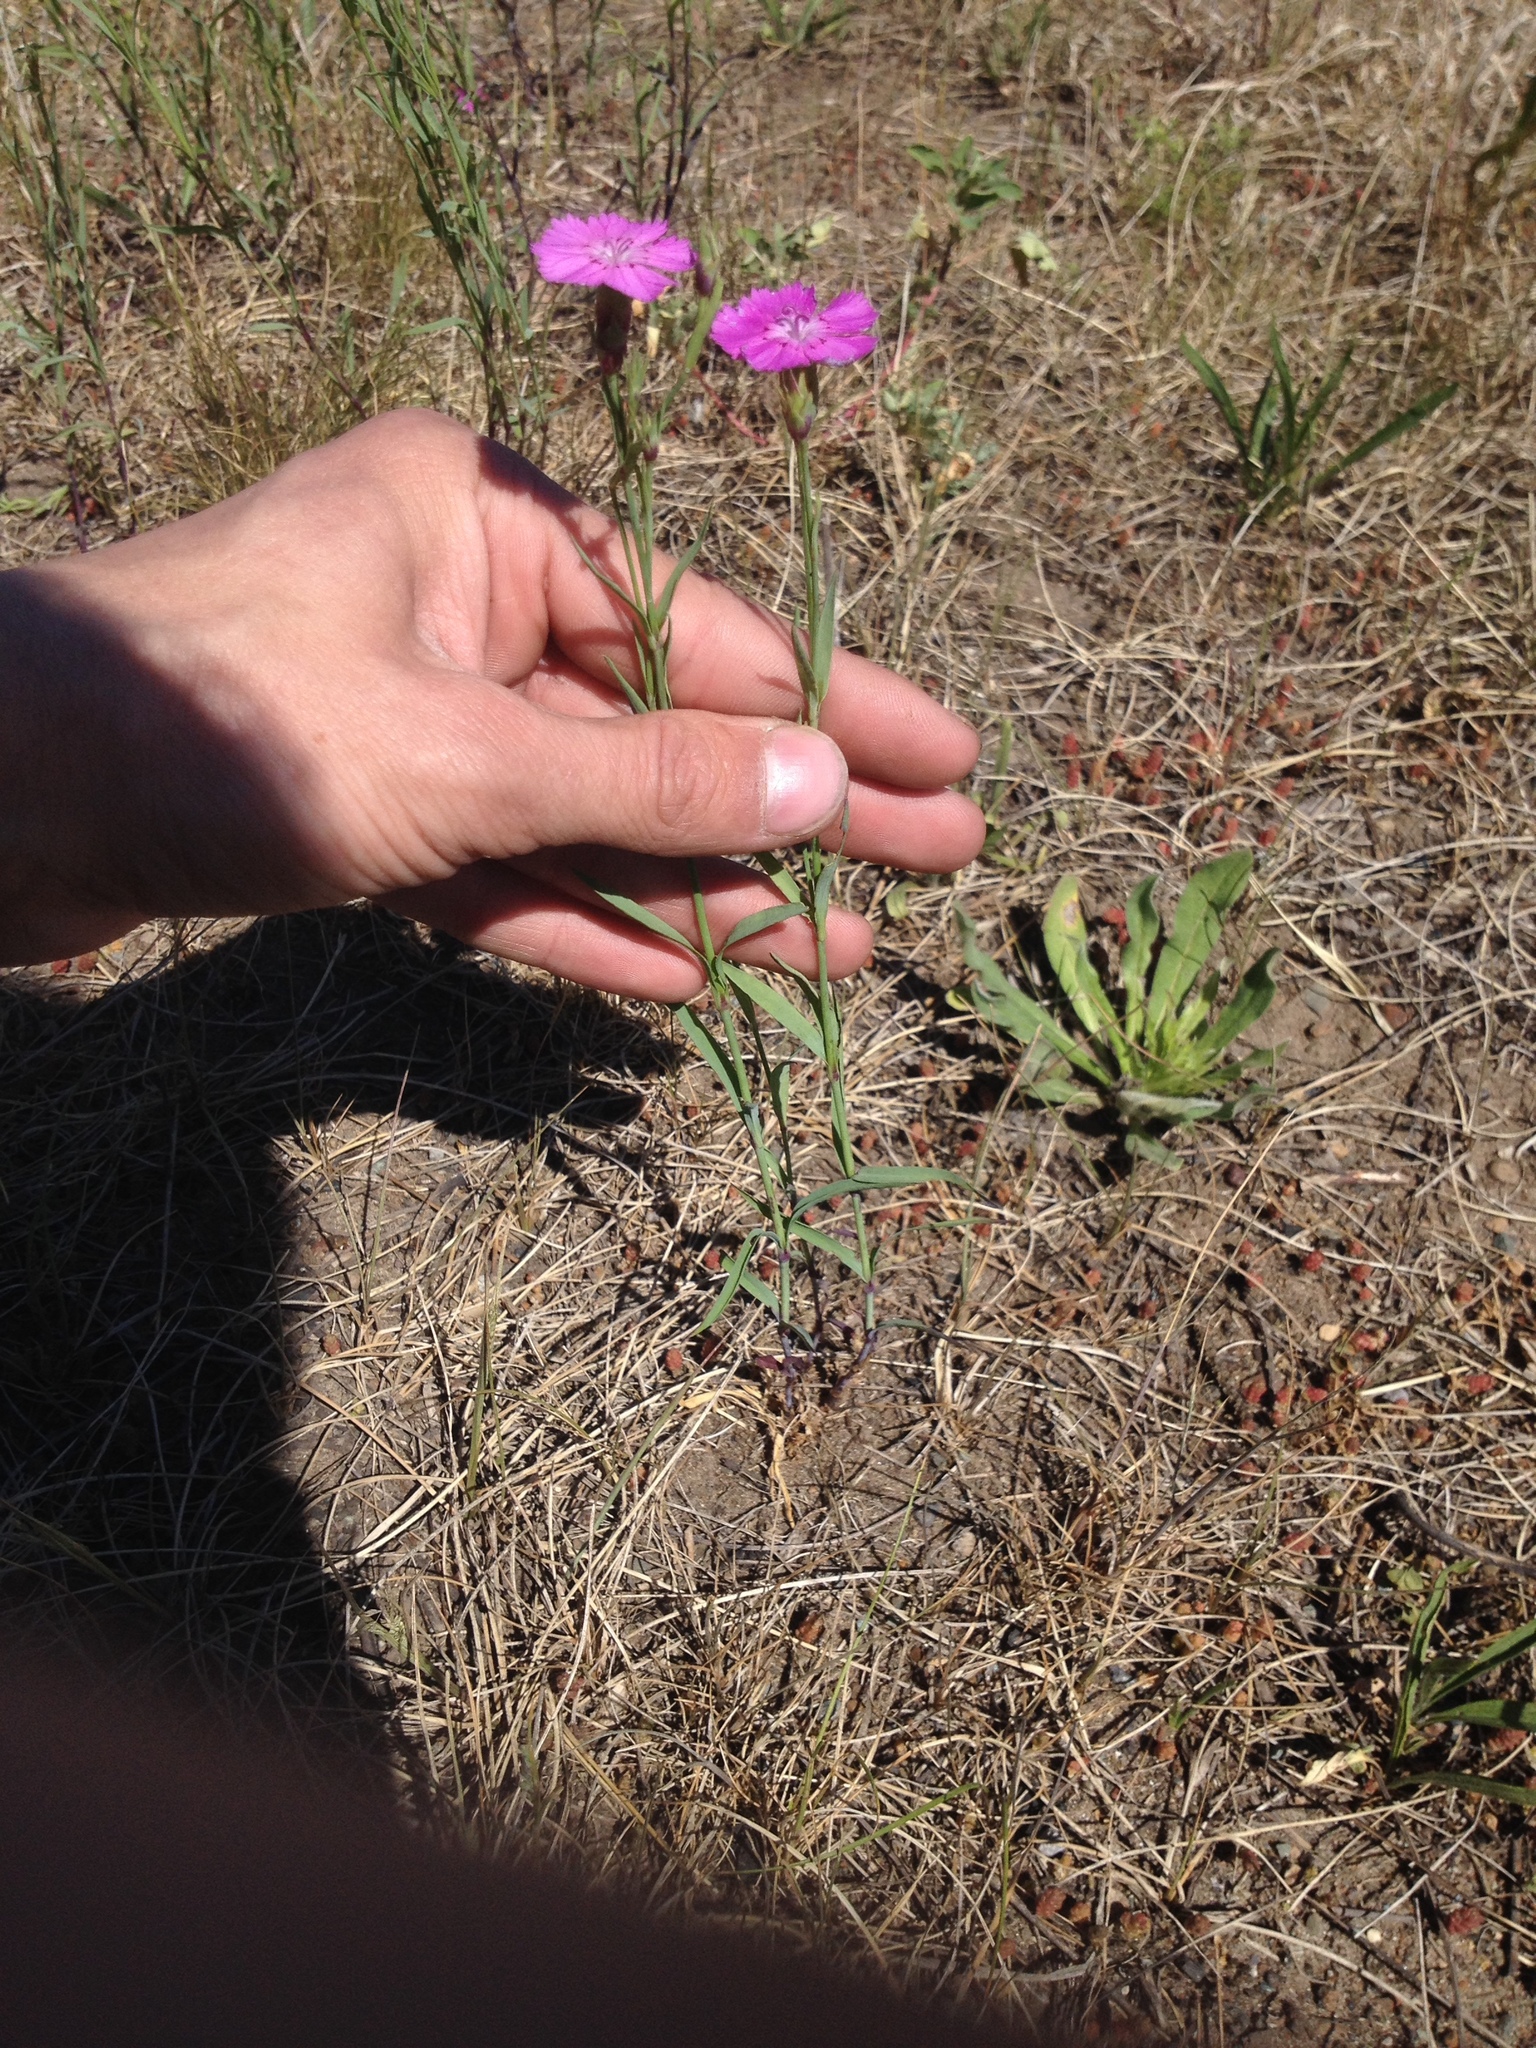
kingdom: Plantae
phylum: Tracheophyta
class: Magnoliopsida
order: Caryophyllales
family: Caryophyllaceae
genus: Dianthus
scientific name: Dianthus chinensis
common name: Rainbow pink
